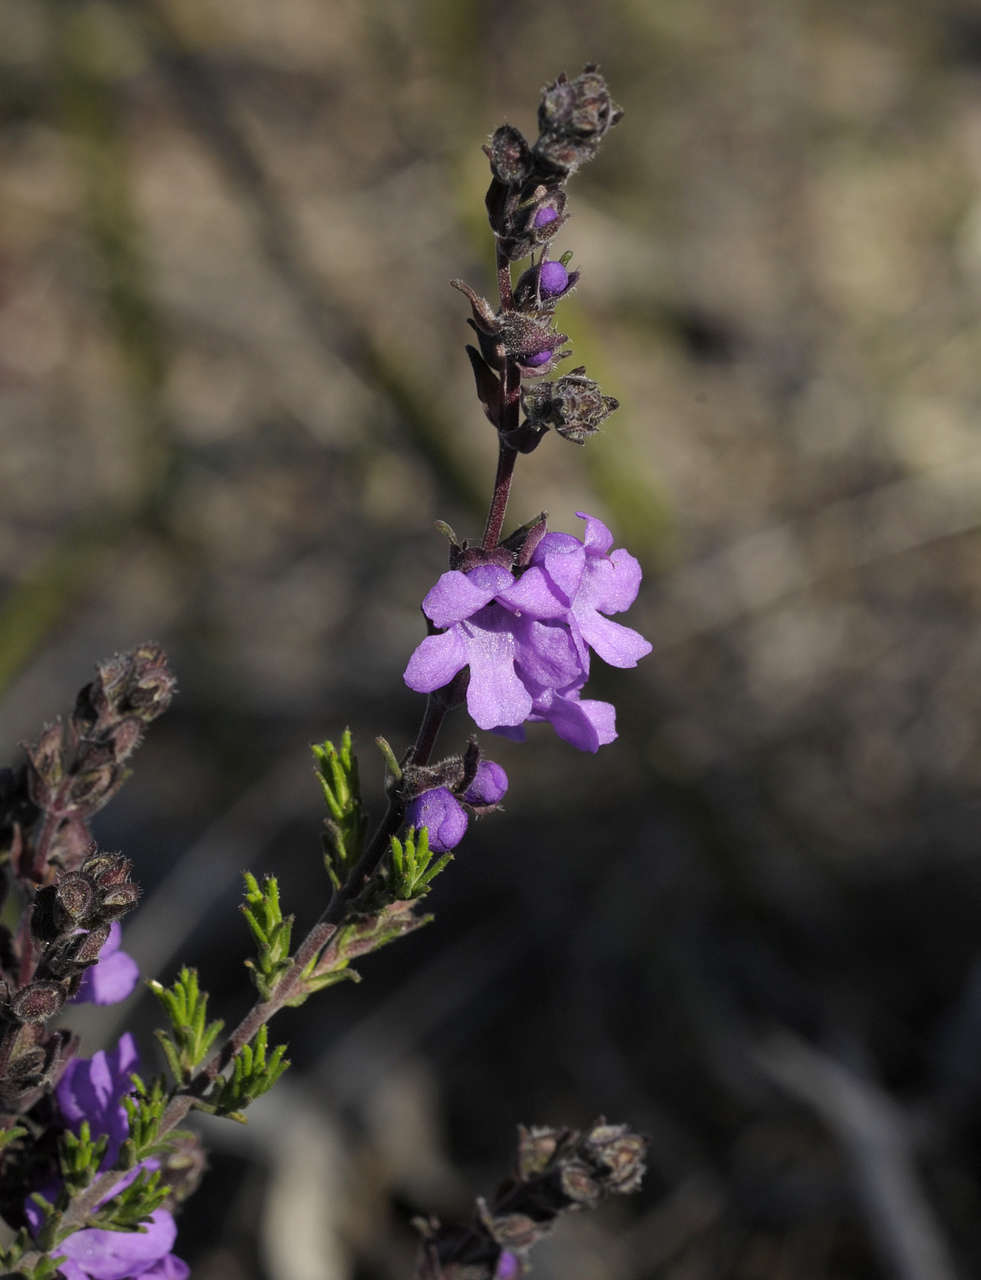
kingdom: Plantae
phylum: Tracheophyta
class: Magnoliopsida
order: Lamiales
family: Lamiaceae
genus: Prostanthera
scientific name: Prostanthera denticulata
